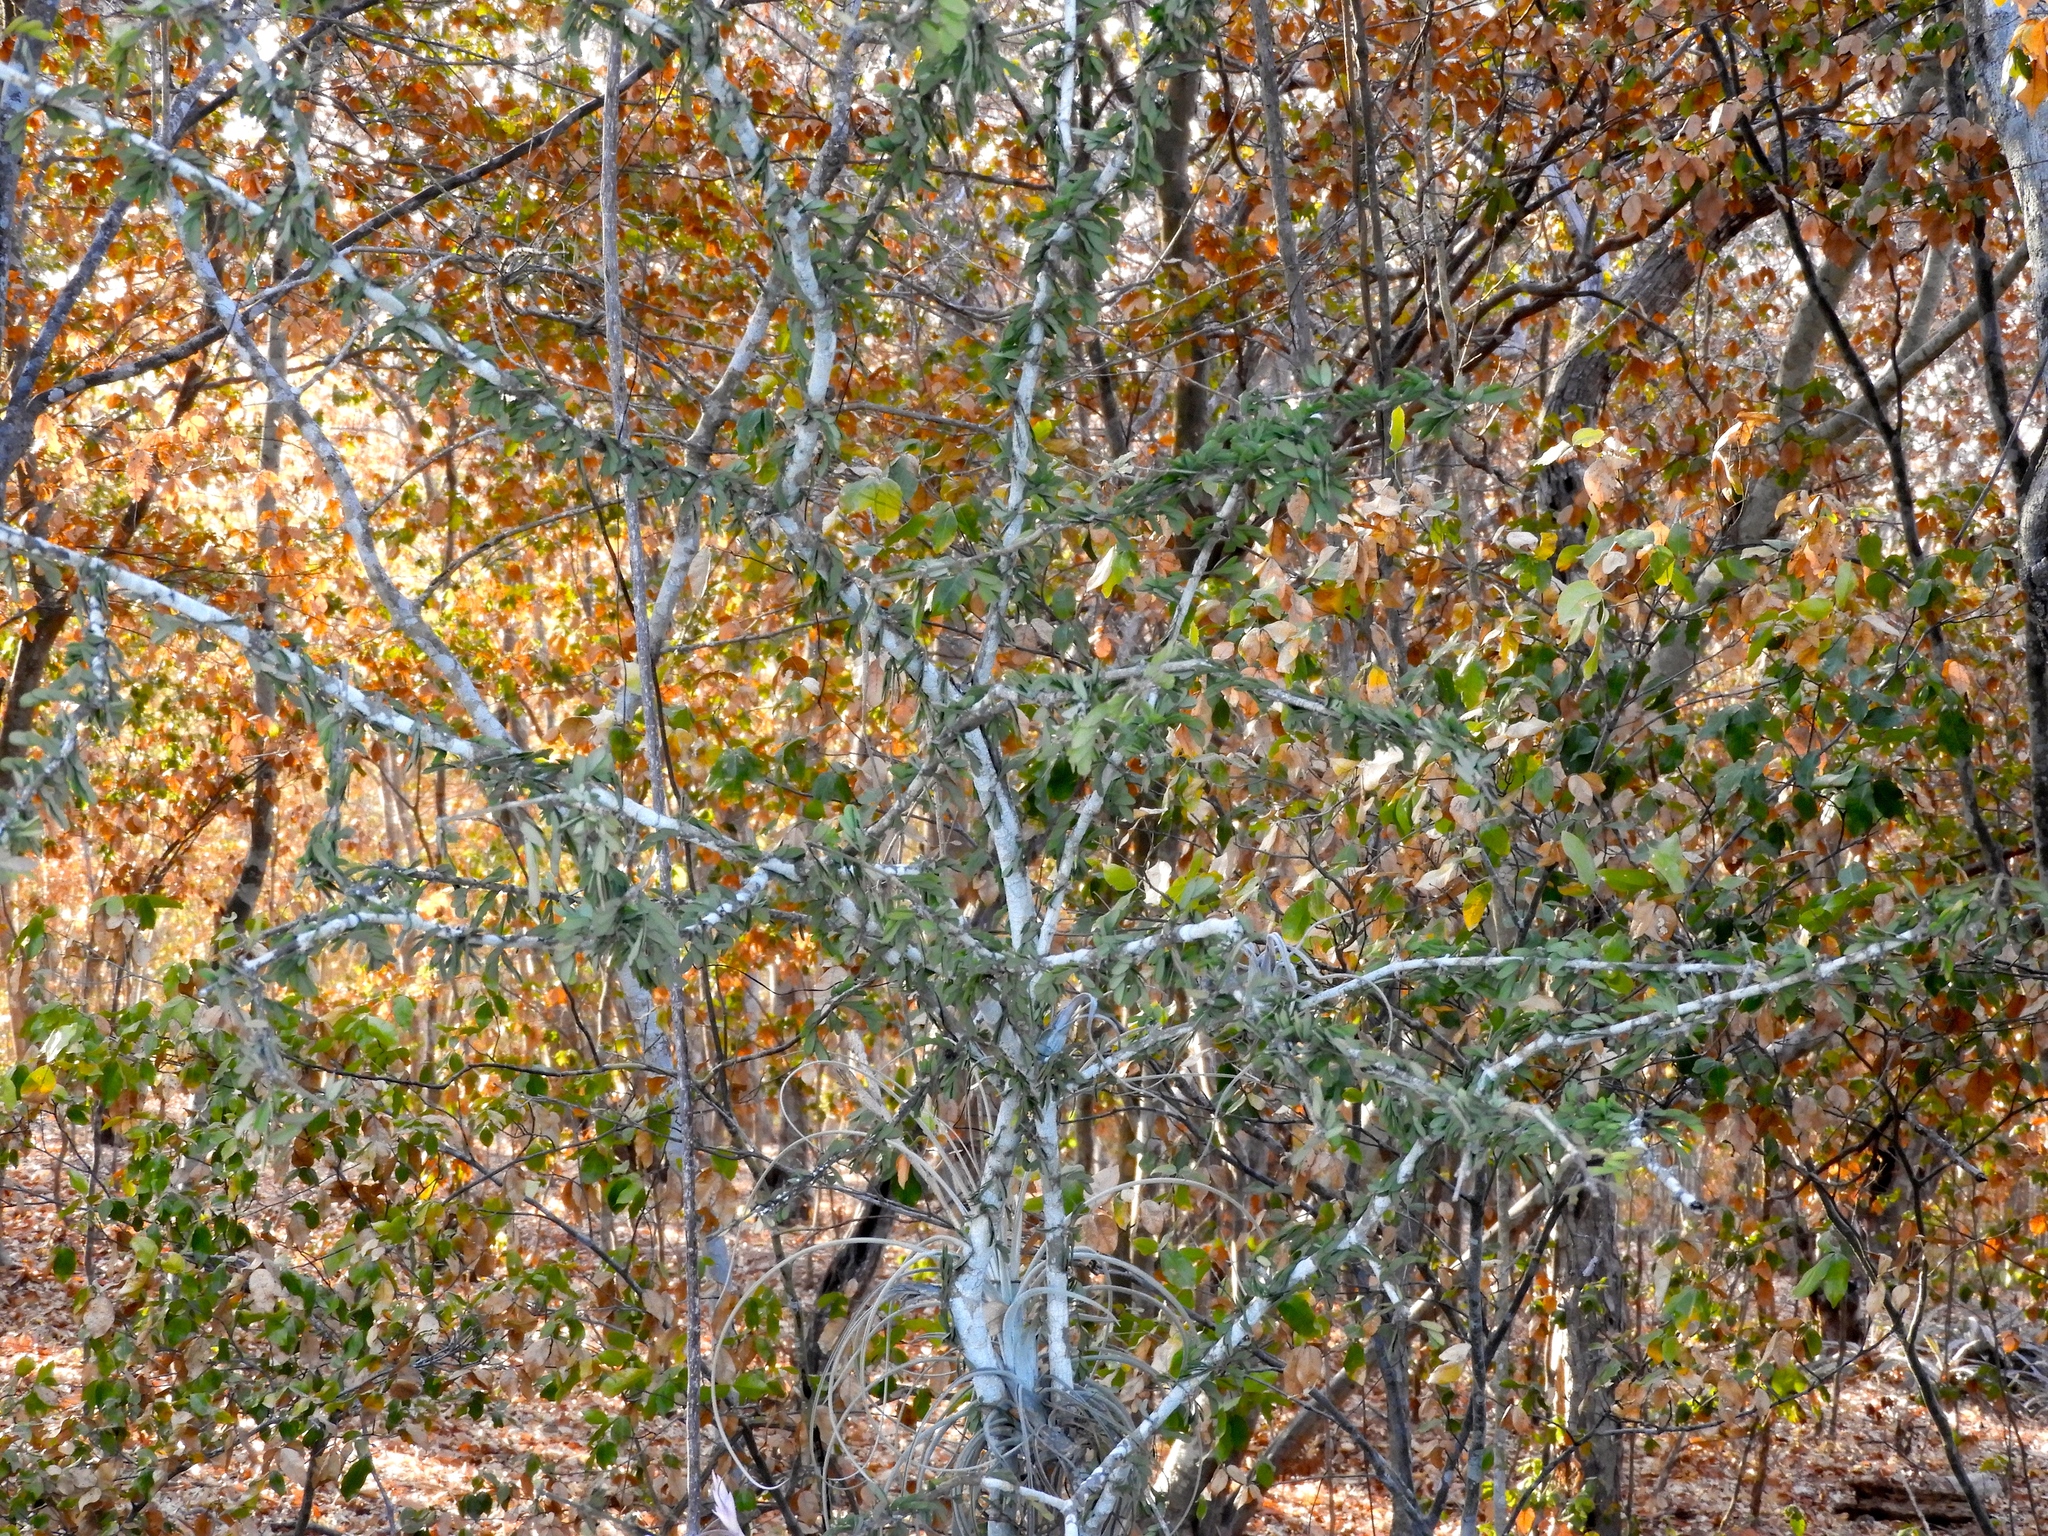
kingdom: Plantae
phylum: Tracheophyta
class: Magnoliopsida
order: Zygophyllales
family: Zygophyllaceae
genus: Guaiacum
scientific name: Guaiacum coulteri
